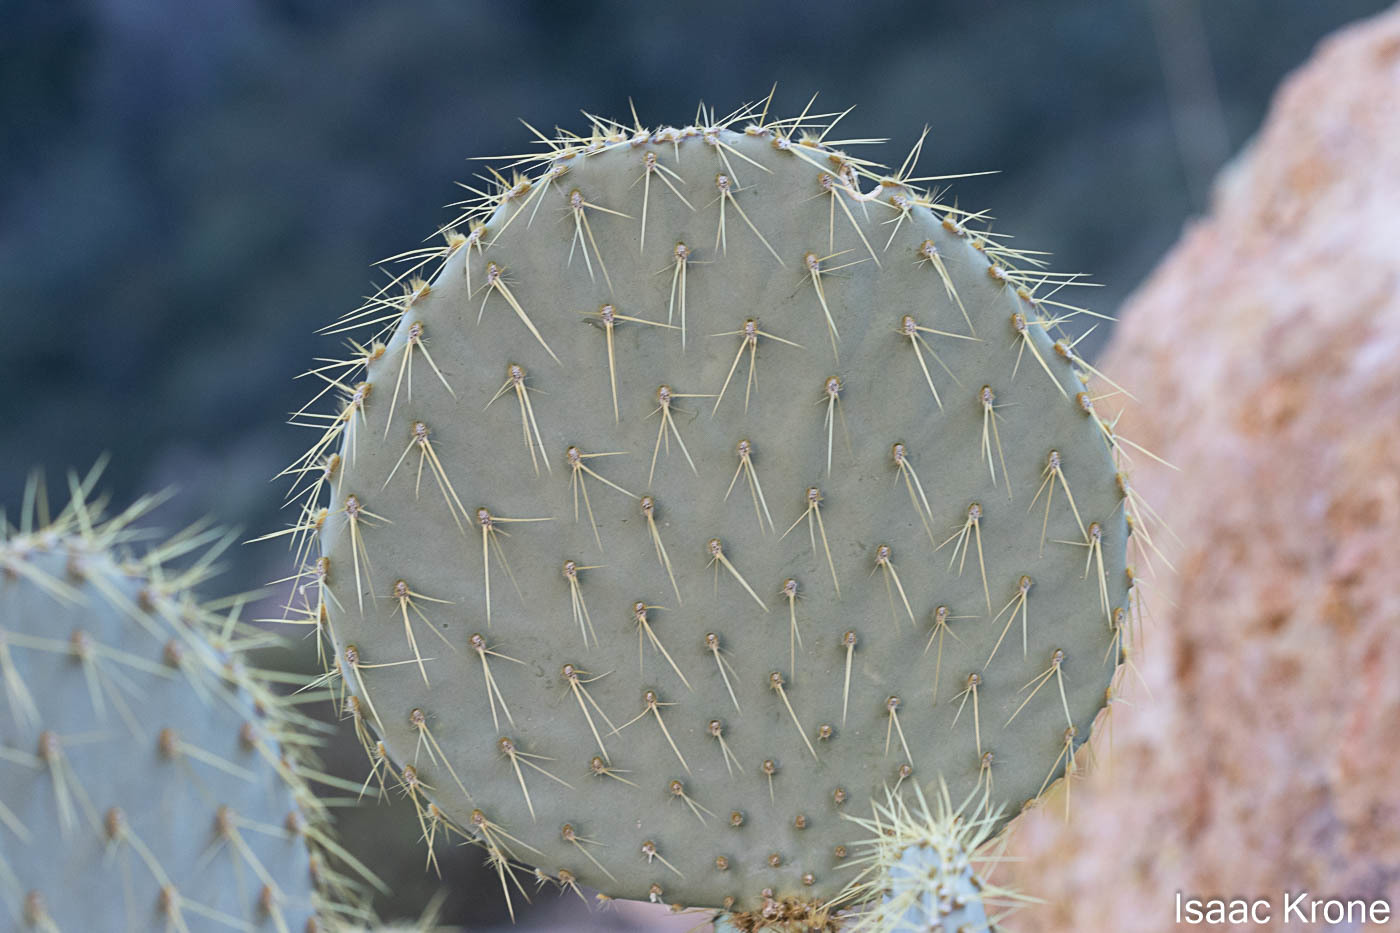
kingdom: Plantae
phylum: Tracheophyta
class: Magnoliopsida
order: Caryophyllales
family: Cactaceae
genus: Opuntia
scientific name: Opuntia chlorotica
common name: Dollar-joint prickly-pear
